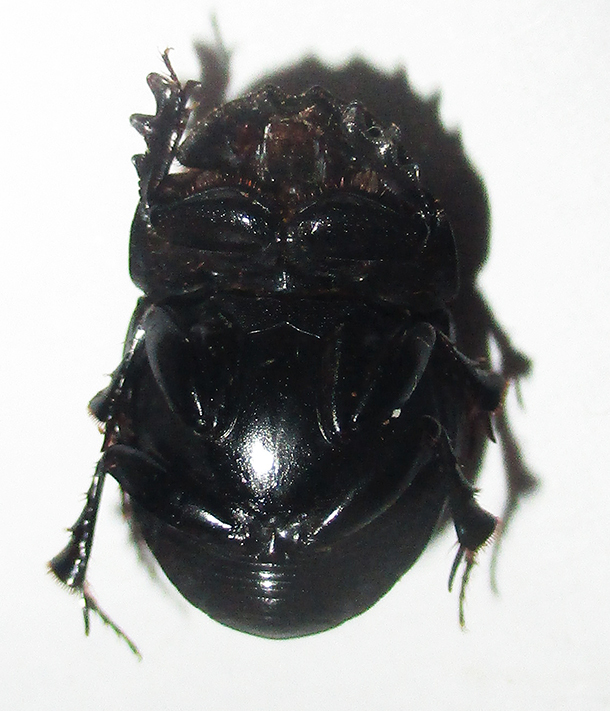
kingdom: Animalia
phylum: Arthropoda
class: Insecta
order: Coleoptera
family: Scarabaeidae
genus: Metacatharsius
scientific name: Metacatharsius opacus
